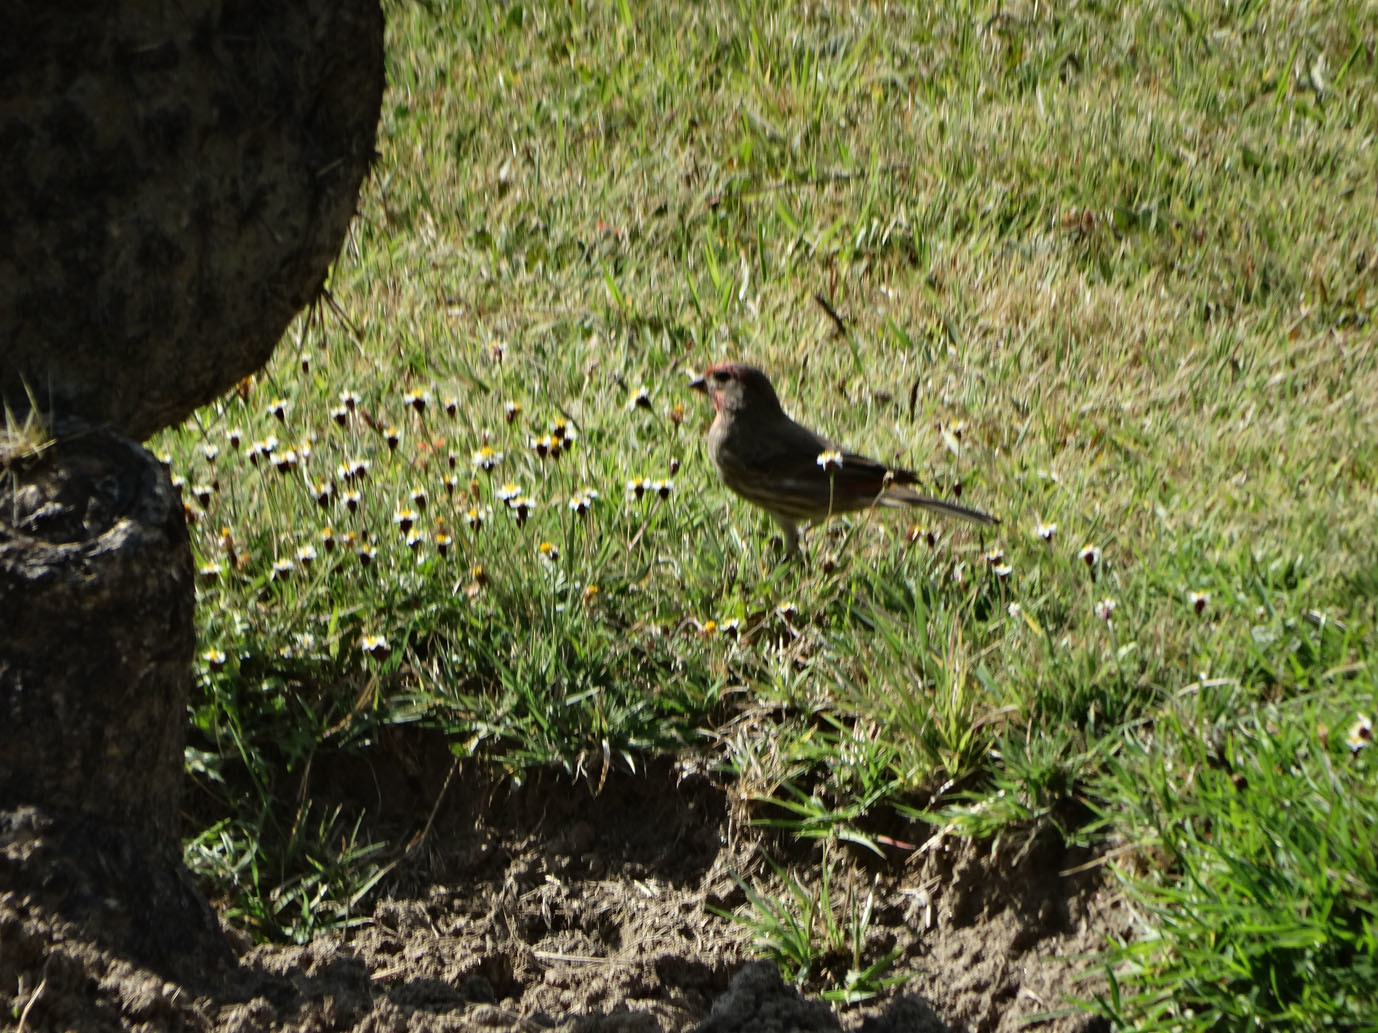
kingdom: Animalia
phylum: Chordata
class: Aves
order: Passeriformes
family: Fringillidae
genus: Haemorhous
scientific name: Haemorhous mexicanus
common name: House finch
